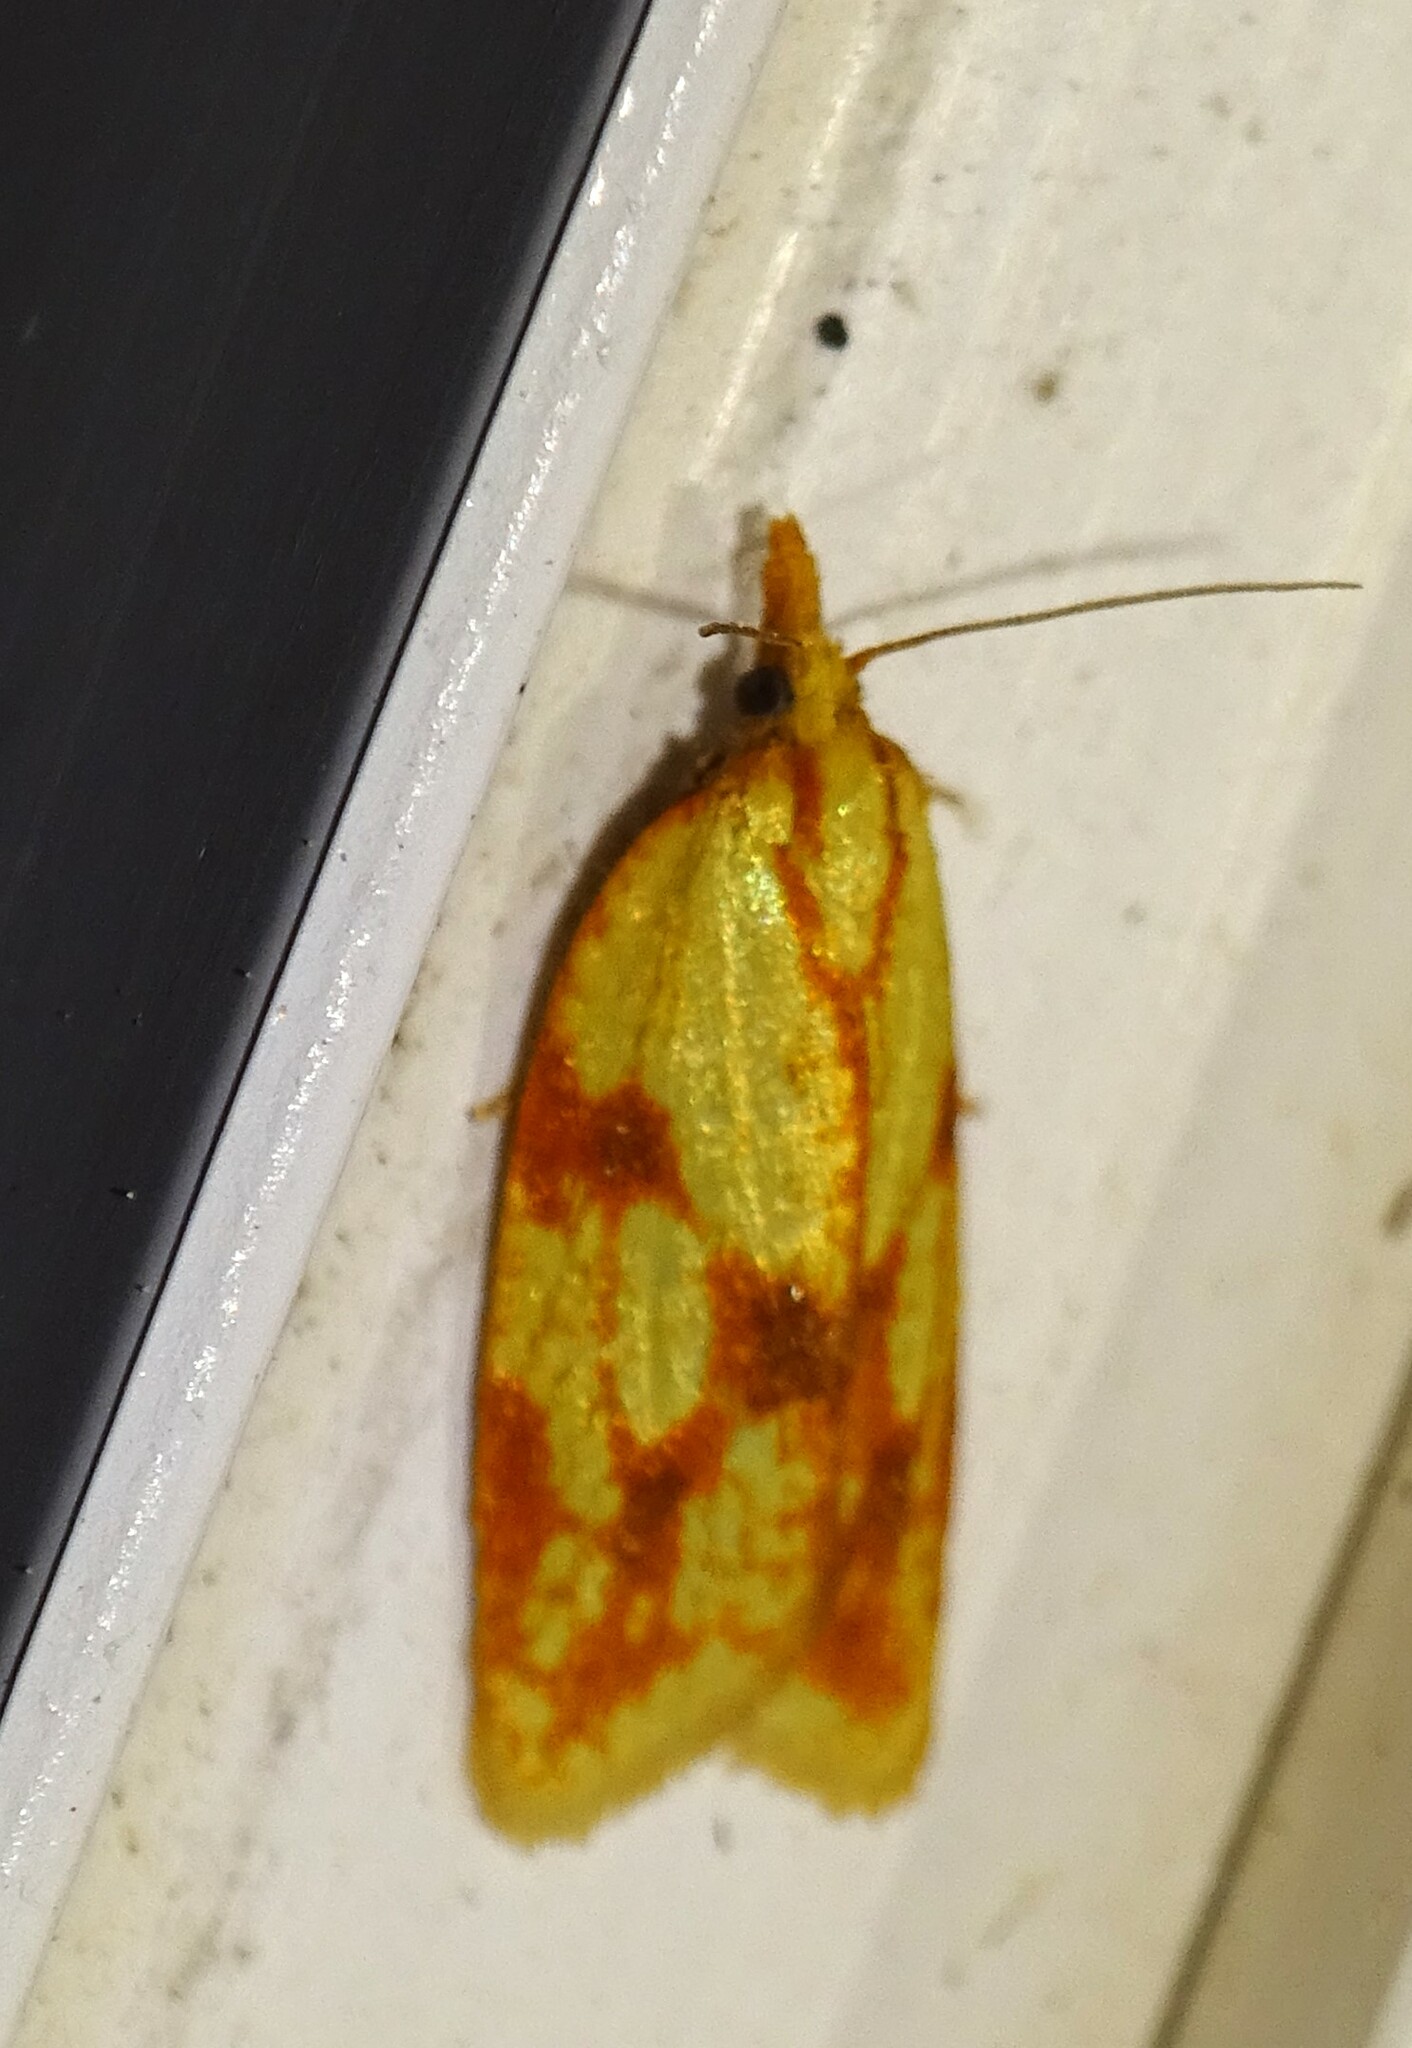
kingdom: Animalia
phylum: Arthropoda
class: Insecta
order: Lepidoptera
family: Tortricidae
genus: Sparganothis
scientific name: Sparganothis sulfureana
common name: Sparganothis fruitworm moth
